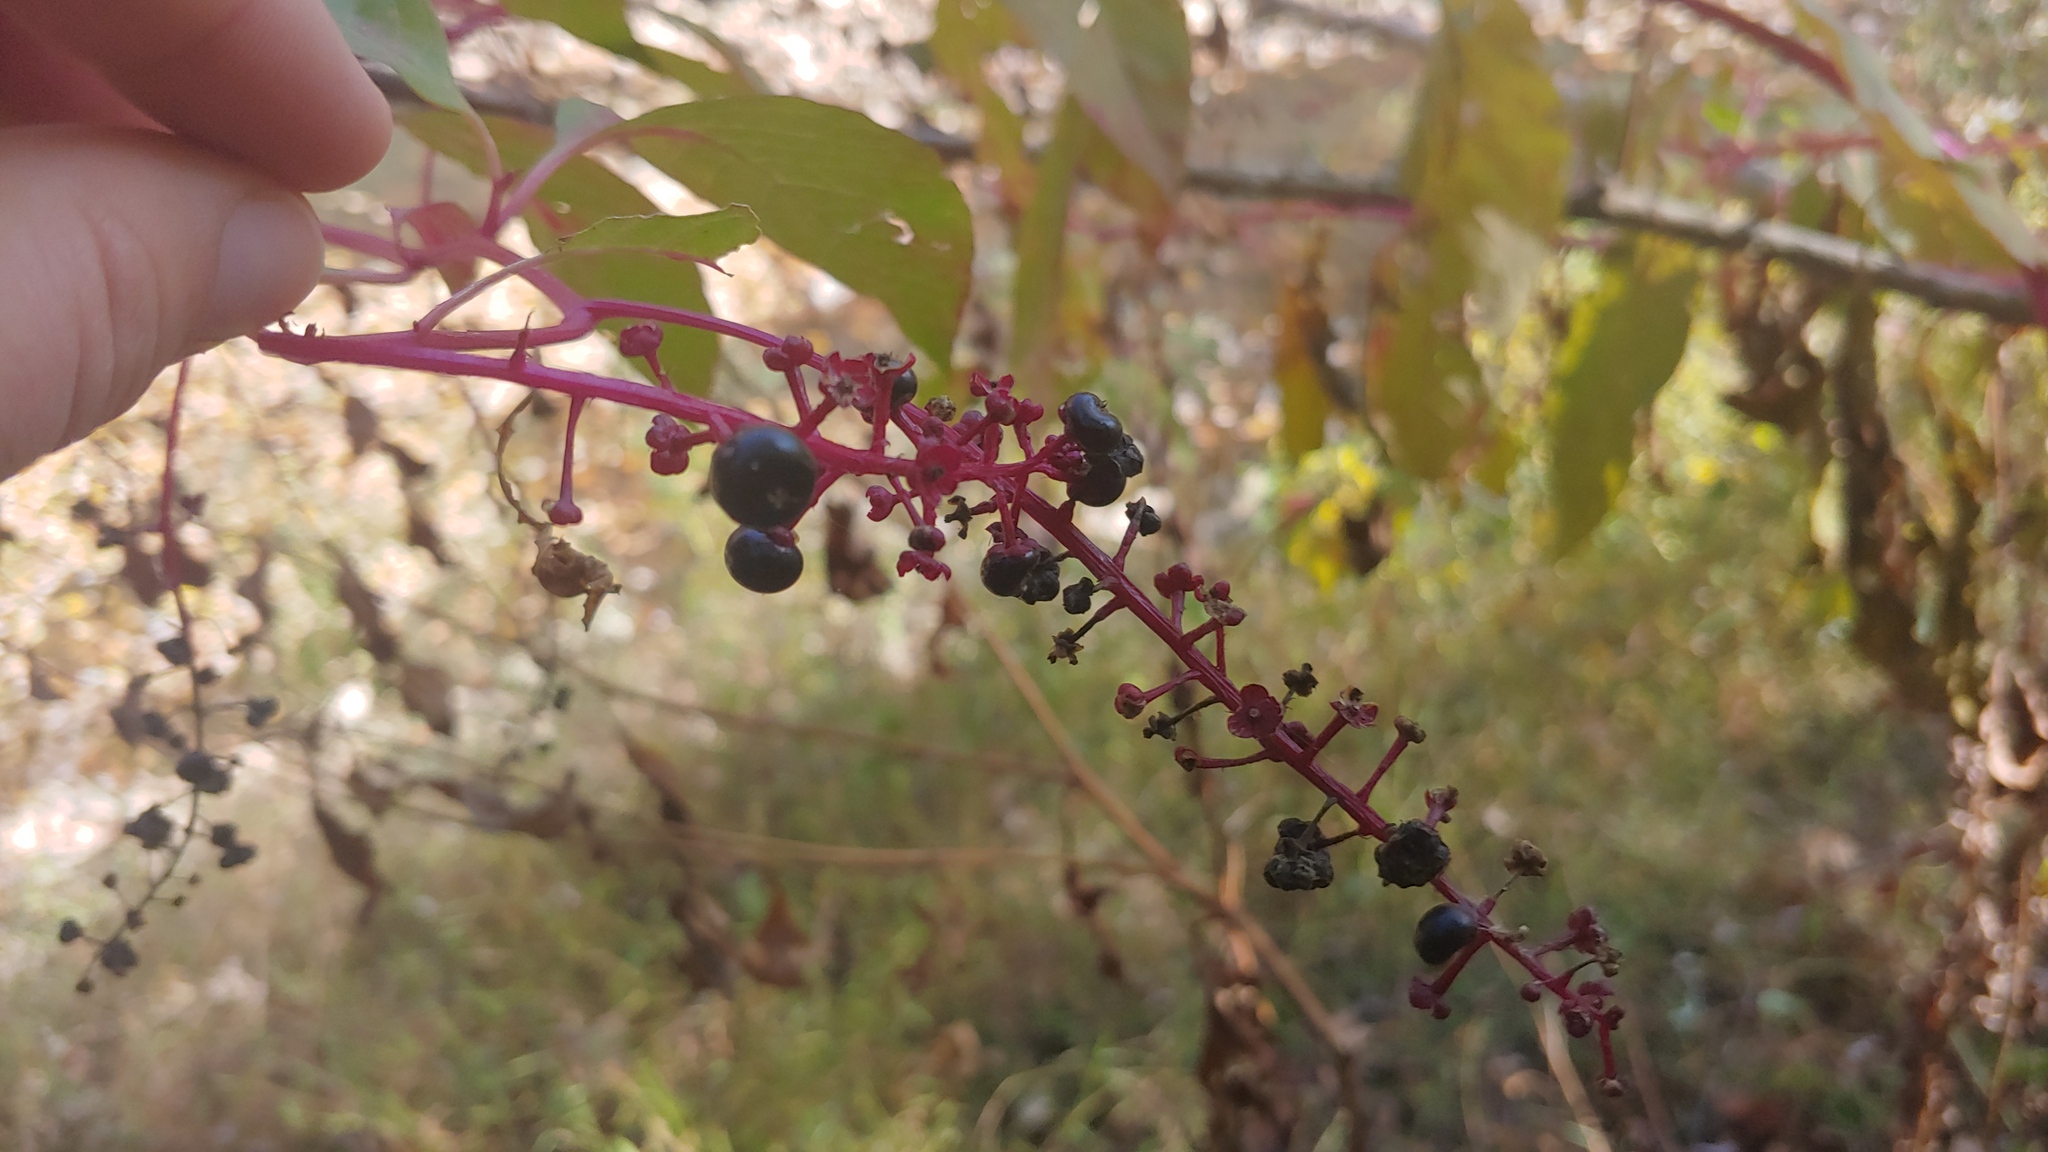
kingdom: Plantae
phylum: Tracheophyta
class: Magnoliopsida
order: Caryophyllales
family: Phytolaccaceae
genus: Phytolacca
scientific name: Phytolacca americana
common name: American pokeweed
